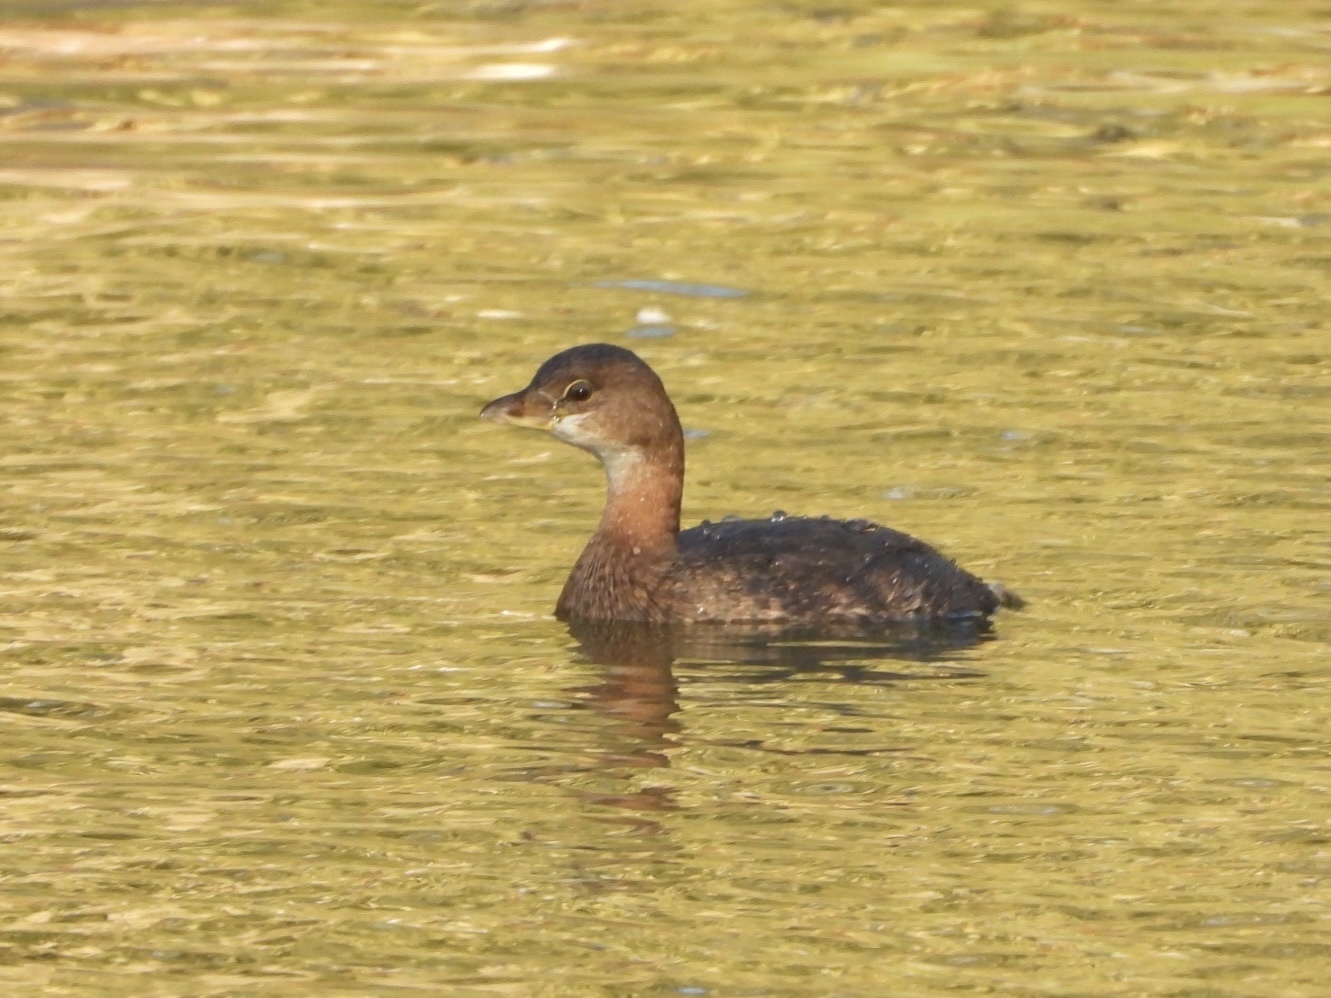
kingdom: Animalia
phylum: Chordata
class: Aves
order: Podicipediformes
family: Podicipedidae
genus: Podilymbus
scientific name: Podilymbus podiceps
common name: Pied-billed grebe
